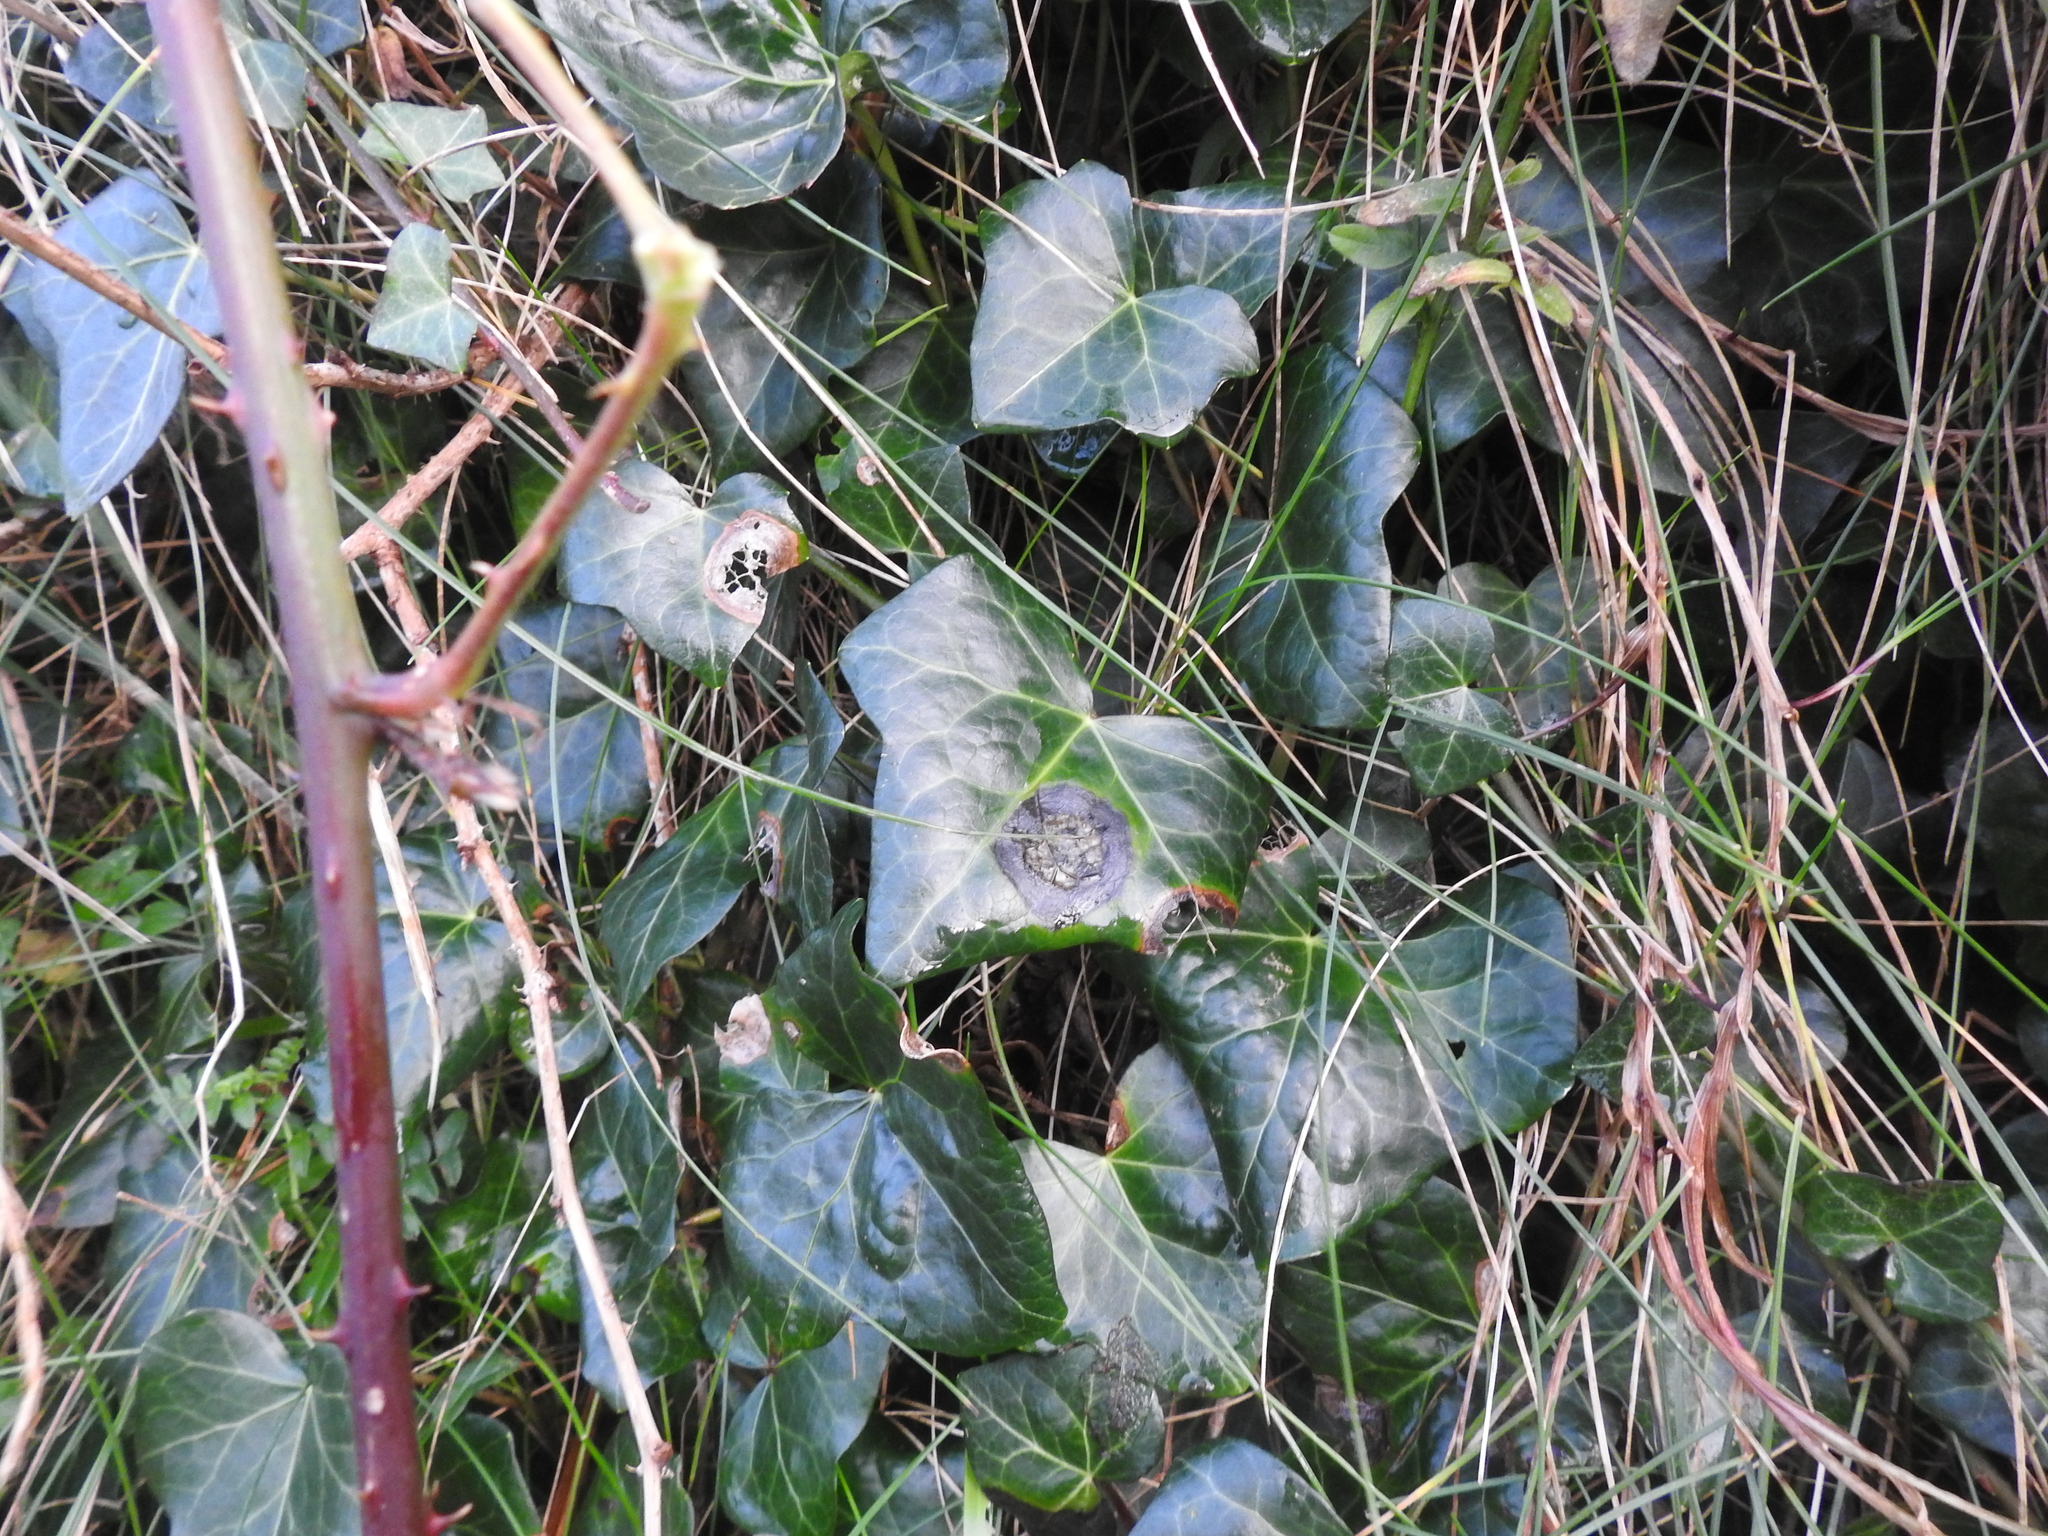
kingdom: Plantae
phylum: Tracheophyta
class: Magnoliopsida
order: Apiales
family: Araliaceae
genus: Hedera
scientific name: Hedera helix
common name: Ivy
